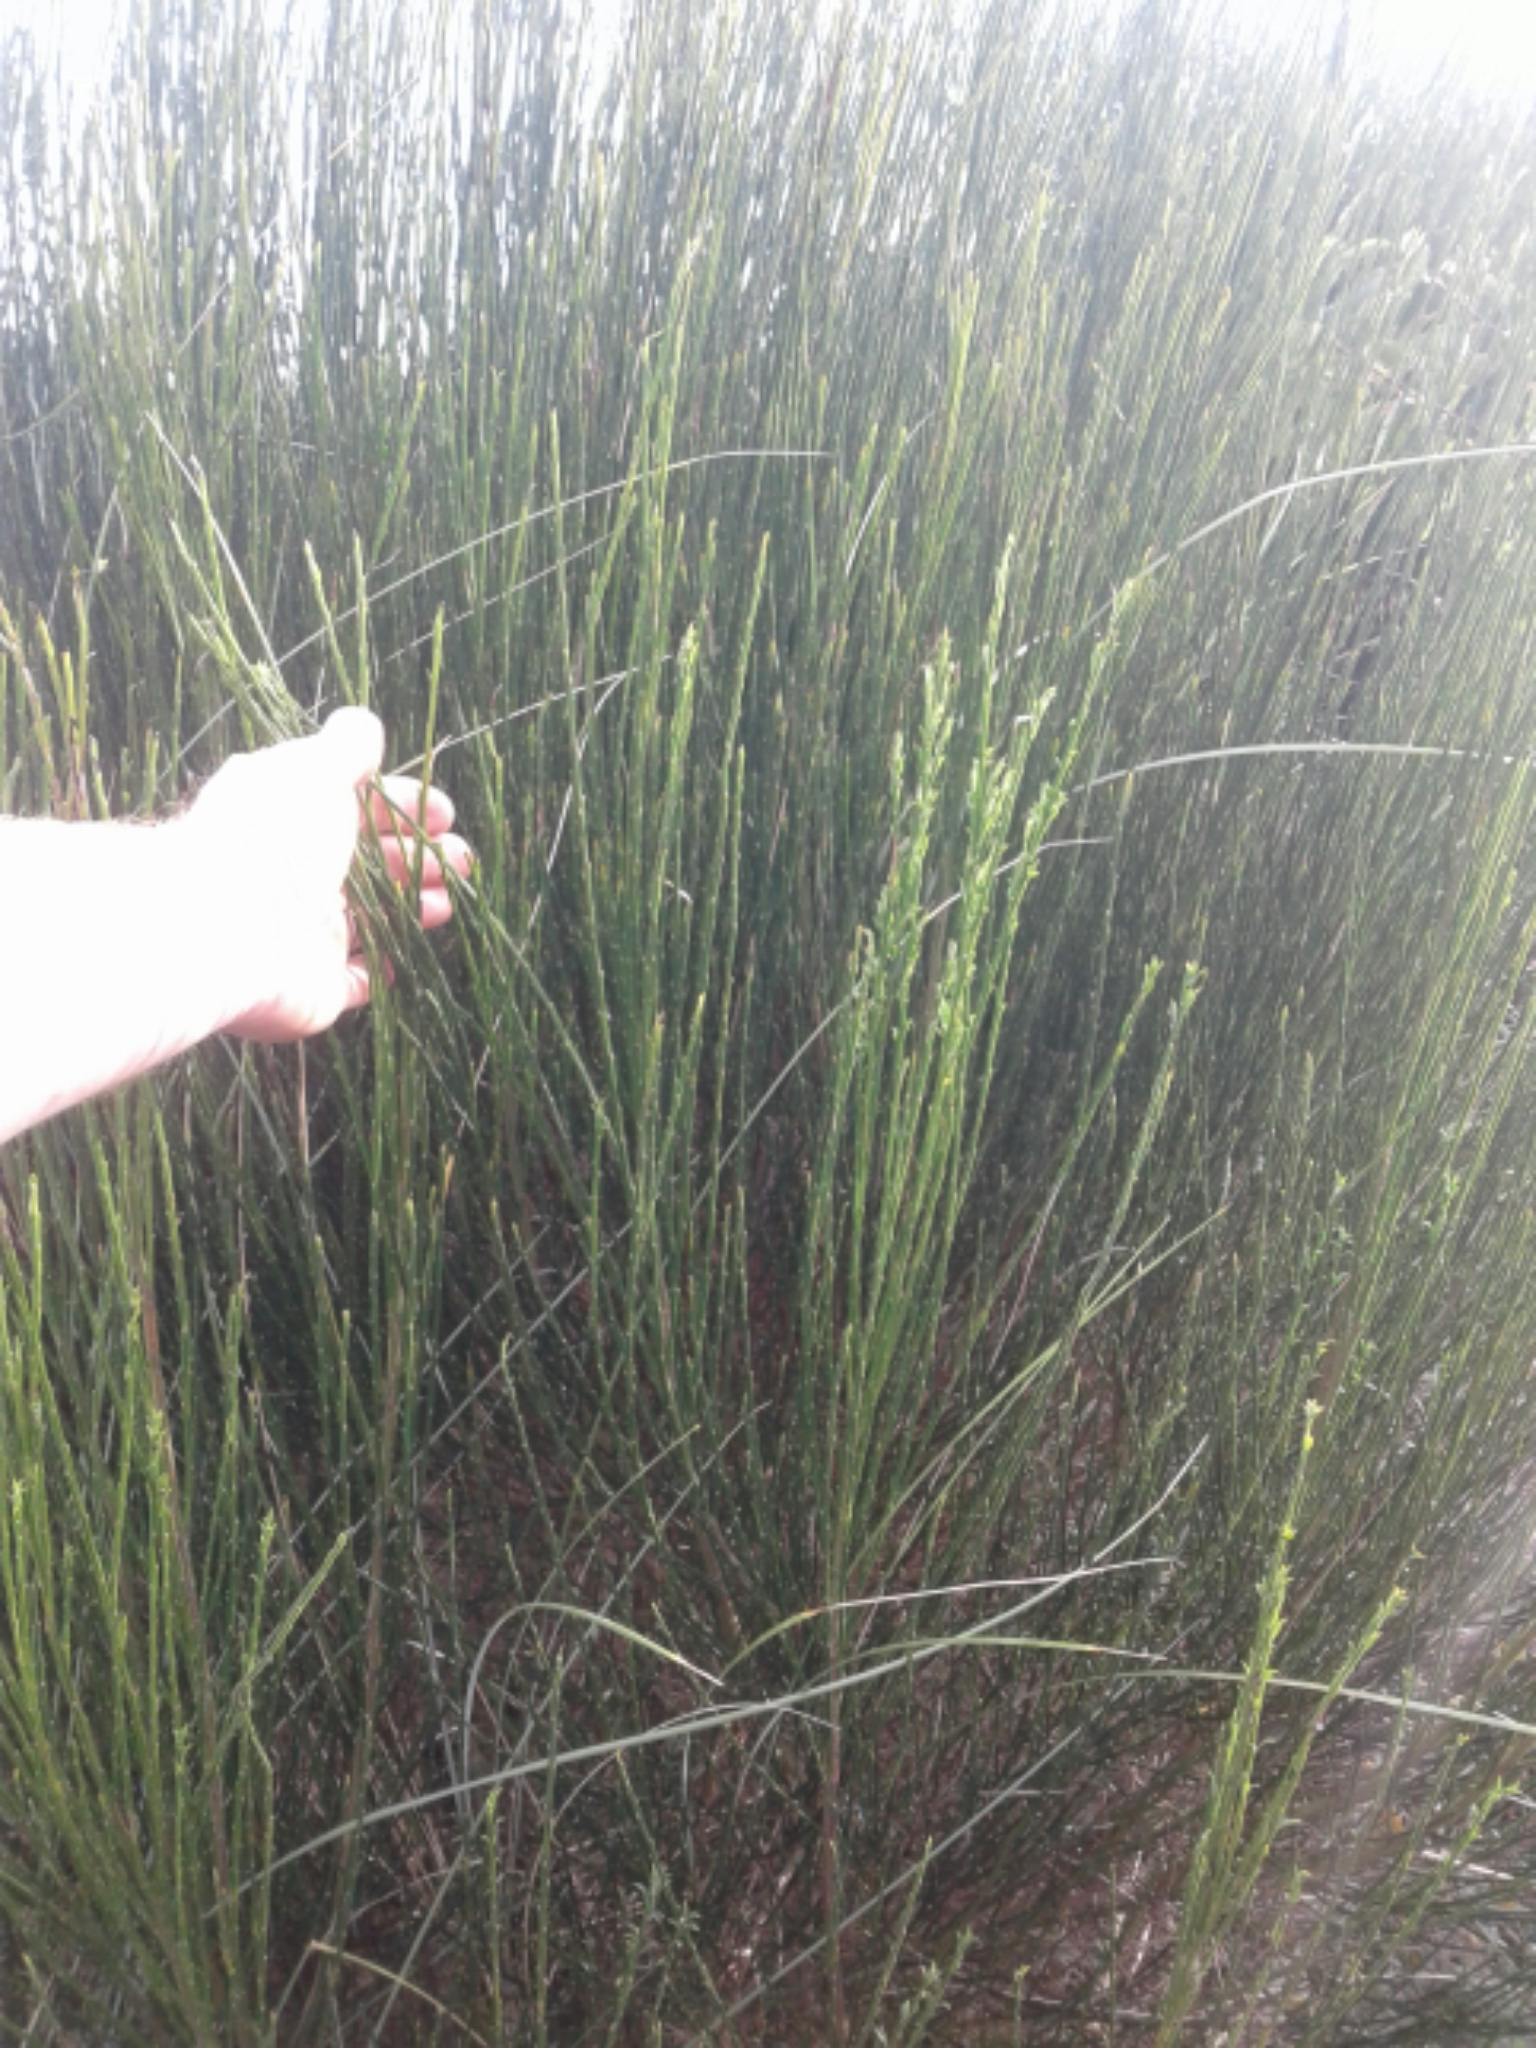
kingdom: Plantae
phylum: Tracheophyta
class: Magnoliopsida
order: Fabales
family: Fabaceae
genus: Cytisus
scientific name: Cytisus scoparius
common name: Scotch broom
